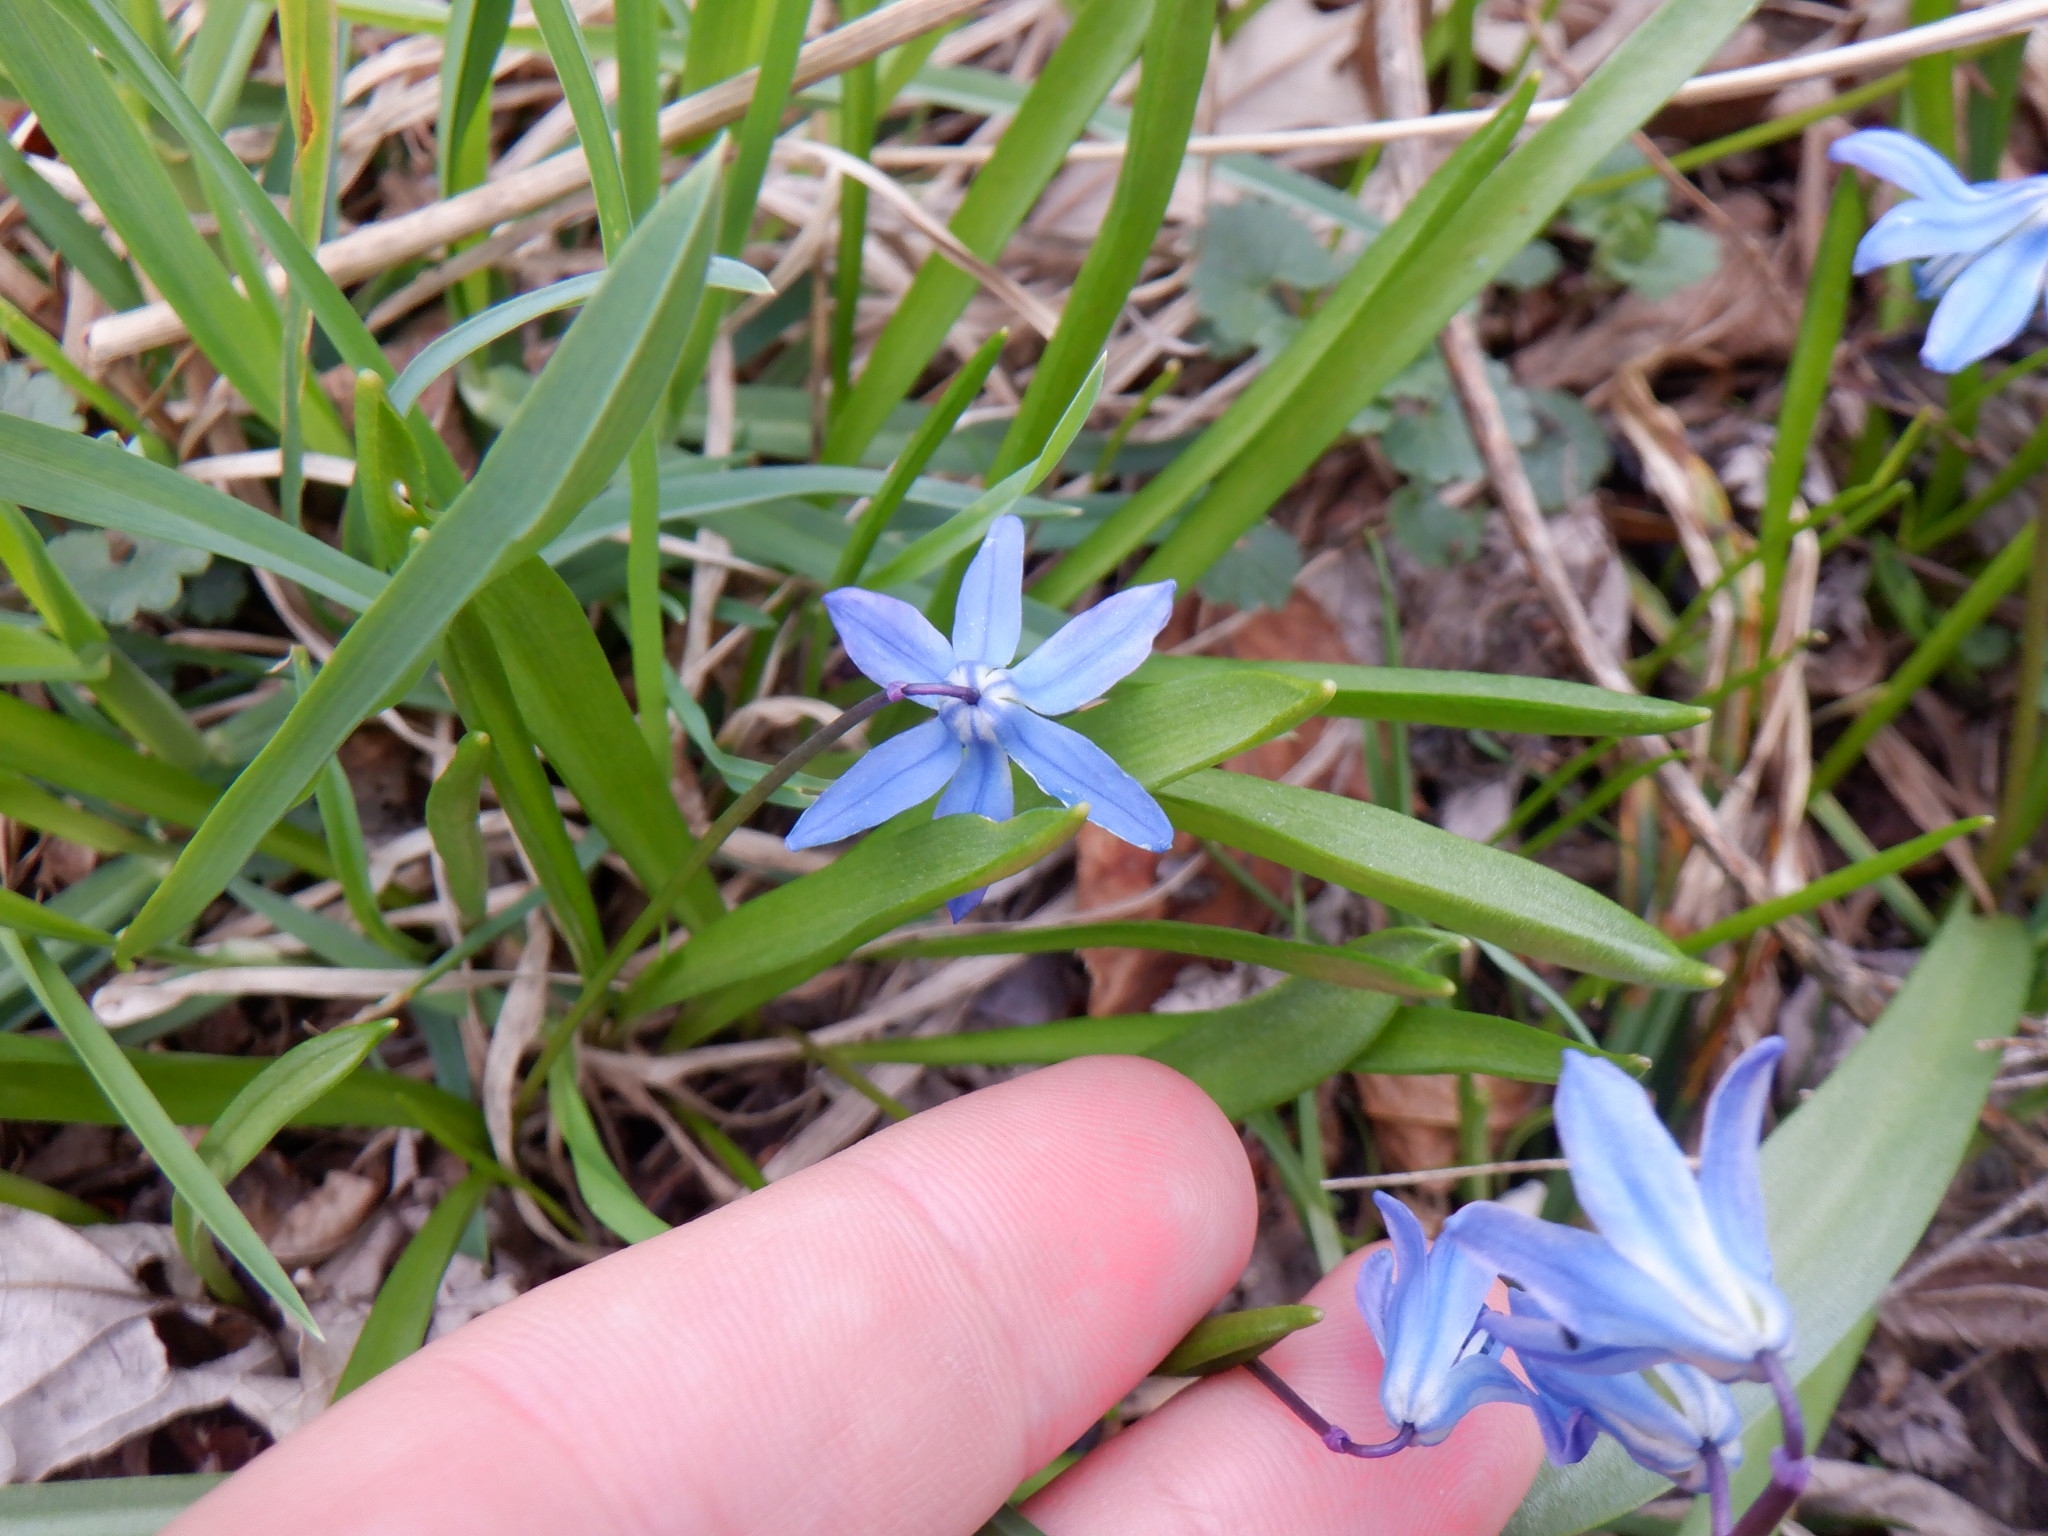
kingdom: Plantae
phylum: Tracheophyta
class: Liliopsida
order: Asparagales
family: Asparagaceae
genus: Scilla
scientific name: Scilla siberica
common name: Siberian squill
